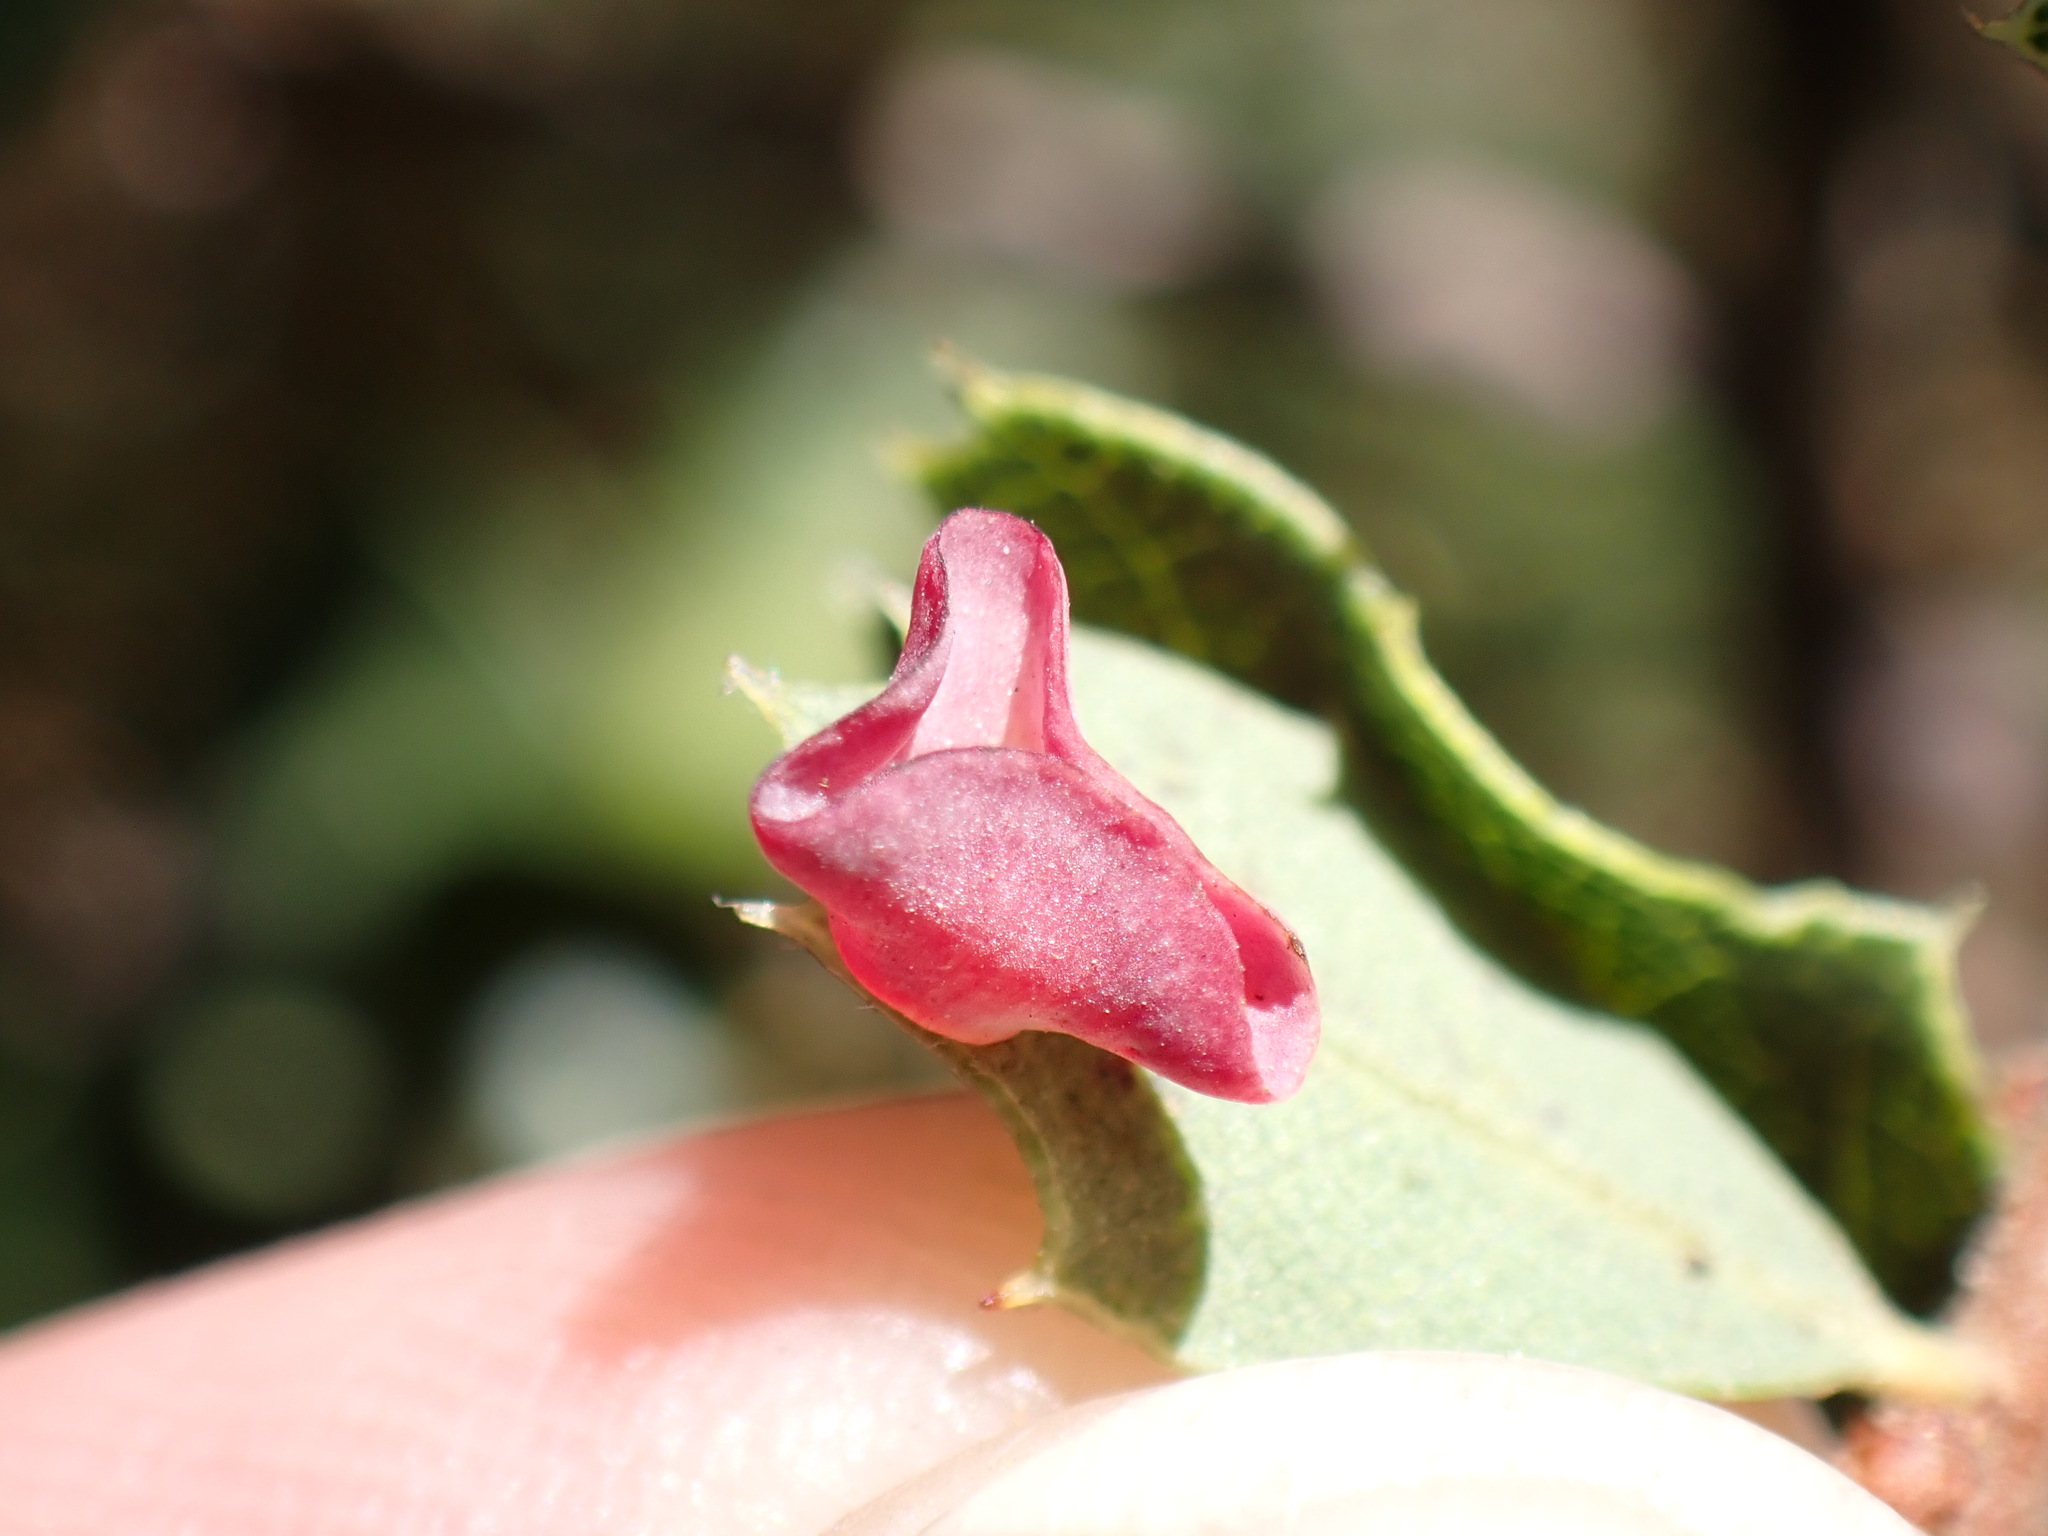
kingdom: Animalia
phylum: Arthropoda
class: Insecta
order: Hymenoptera
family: Cynipidae
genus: Andricus
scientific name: Andricus
